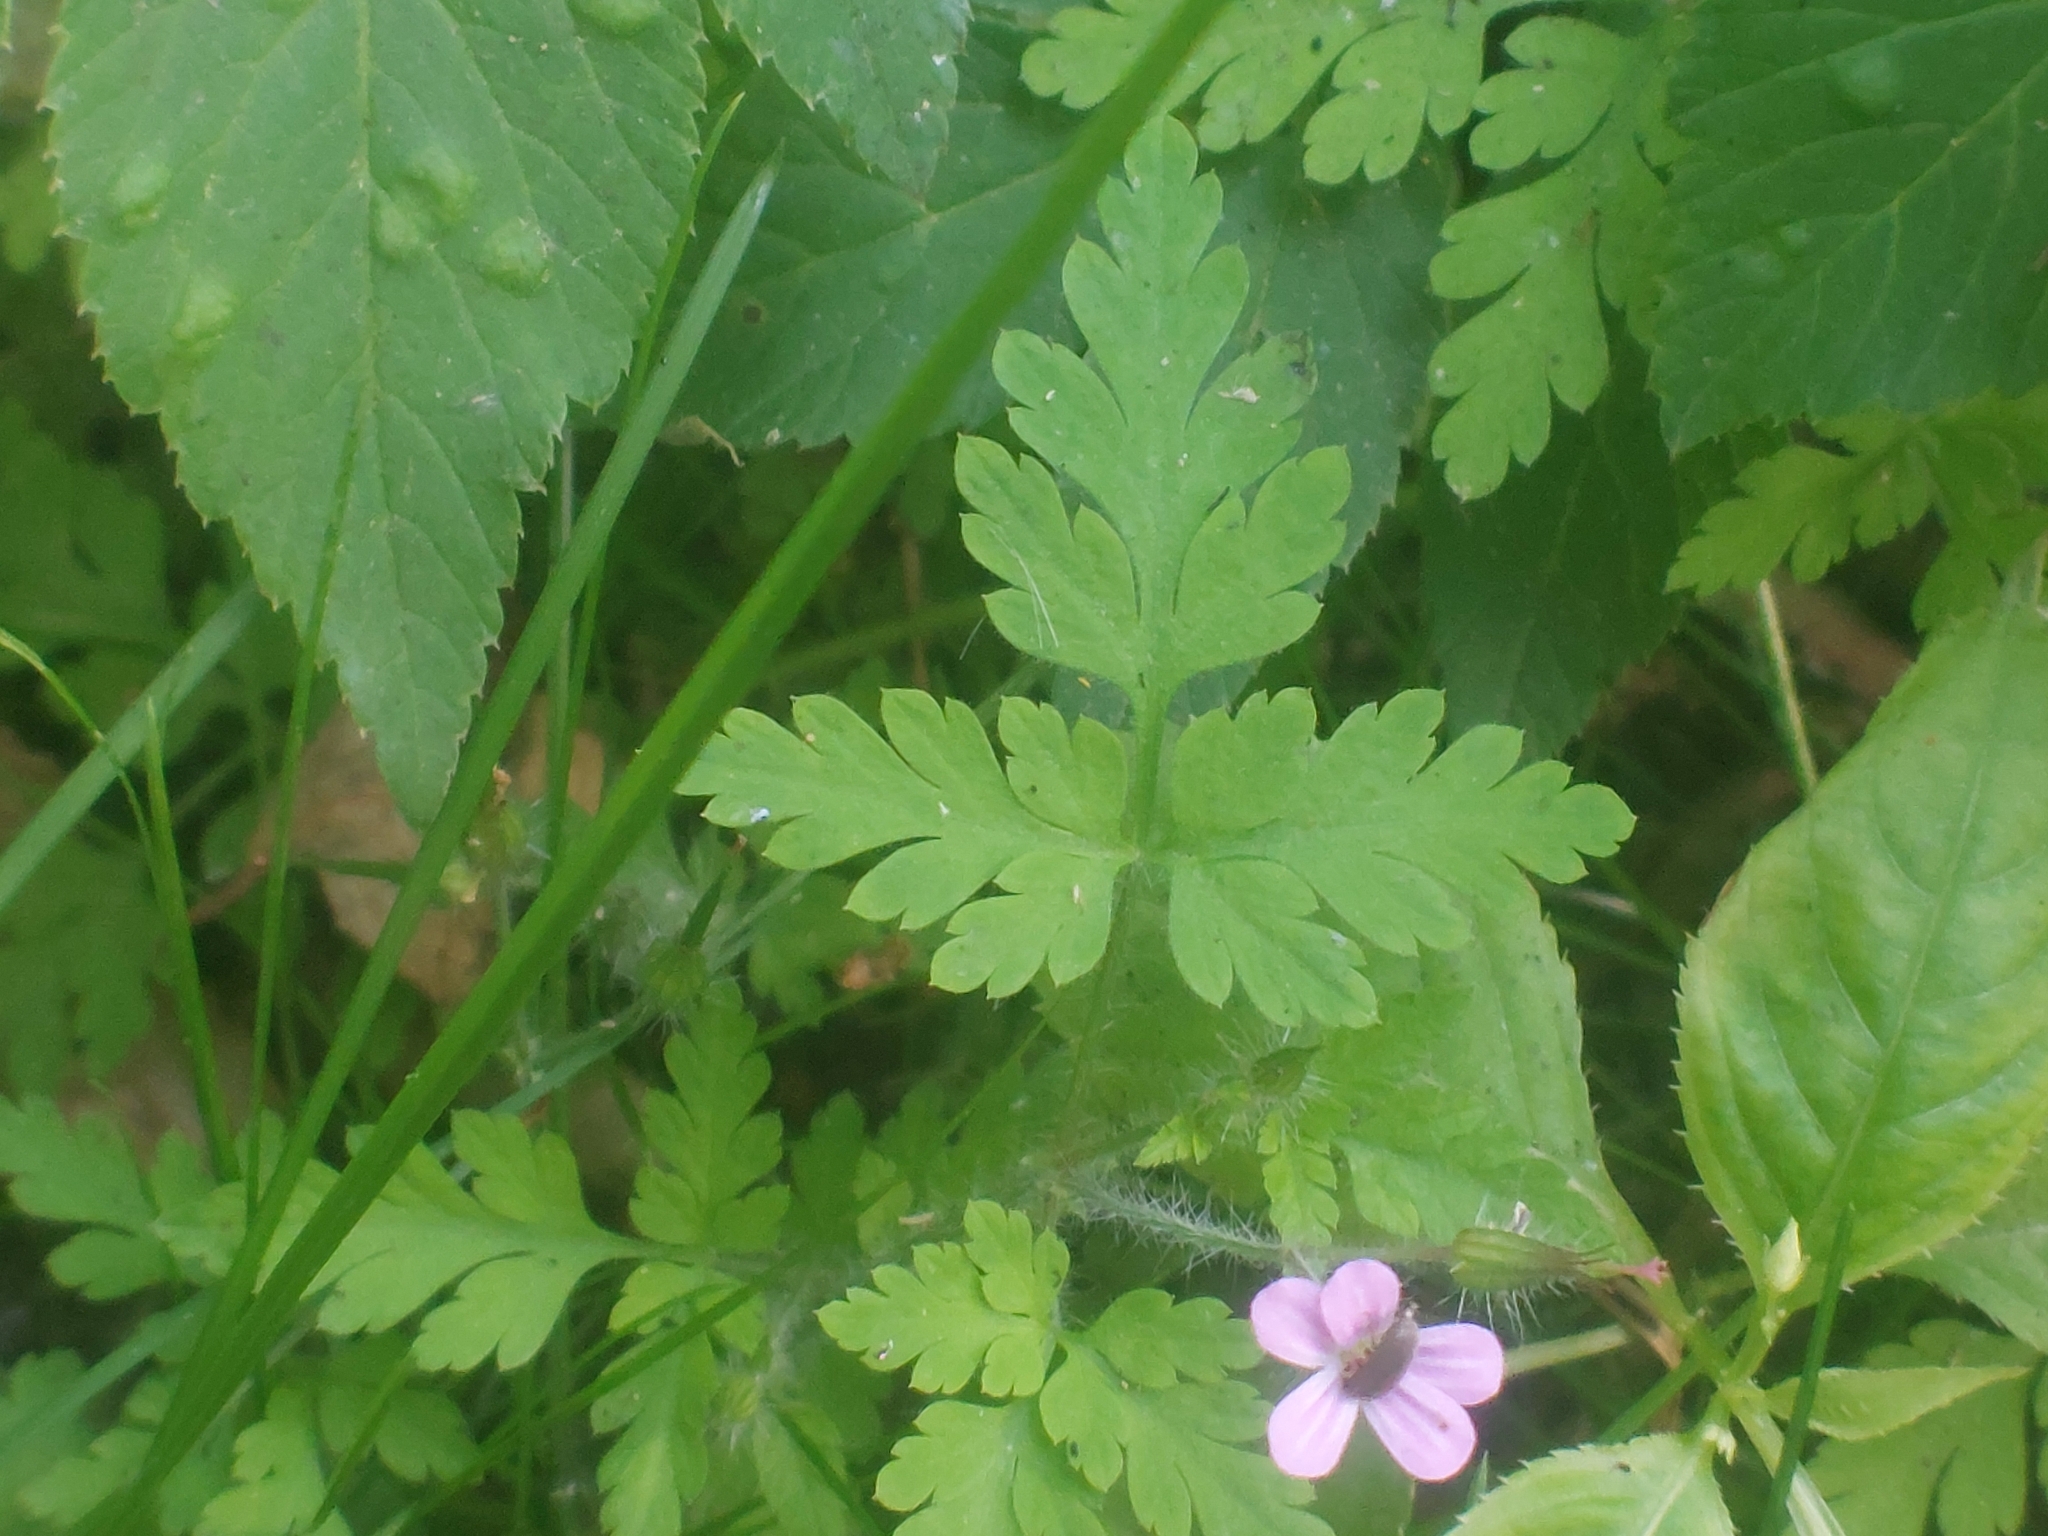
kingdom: Plantae
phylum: Tracheophyta
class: Magnoliopsida
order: Geraniales
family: Geraniaceae
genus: Geranium
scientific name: Geranium robertianum
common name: Herb-robert
